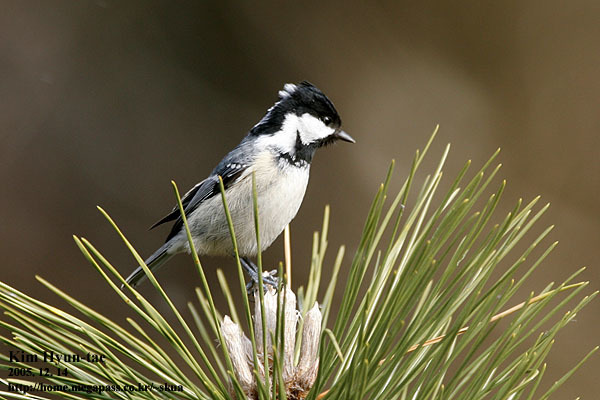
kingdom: Animalia
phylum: Chordata
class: Aves
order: Passeriformes
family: Paridae
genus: Periparus
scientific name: Periparus ater
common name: Coal tit
